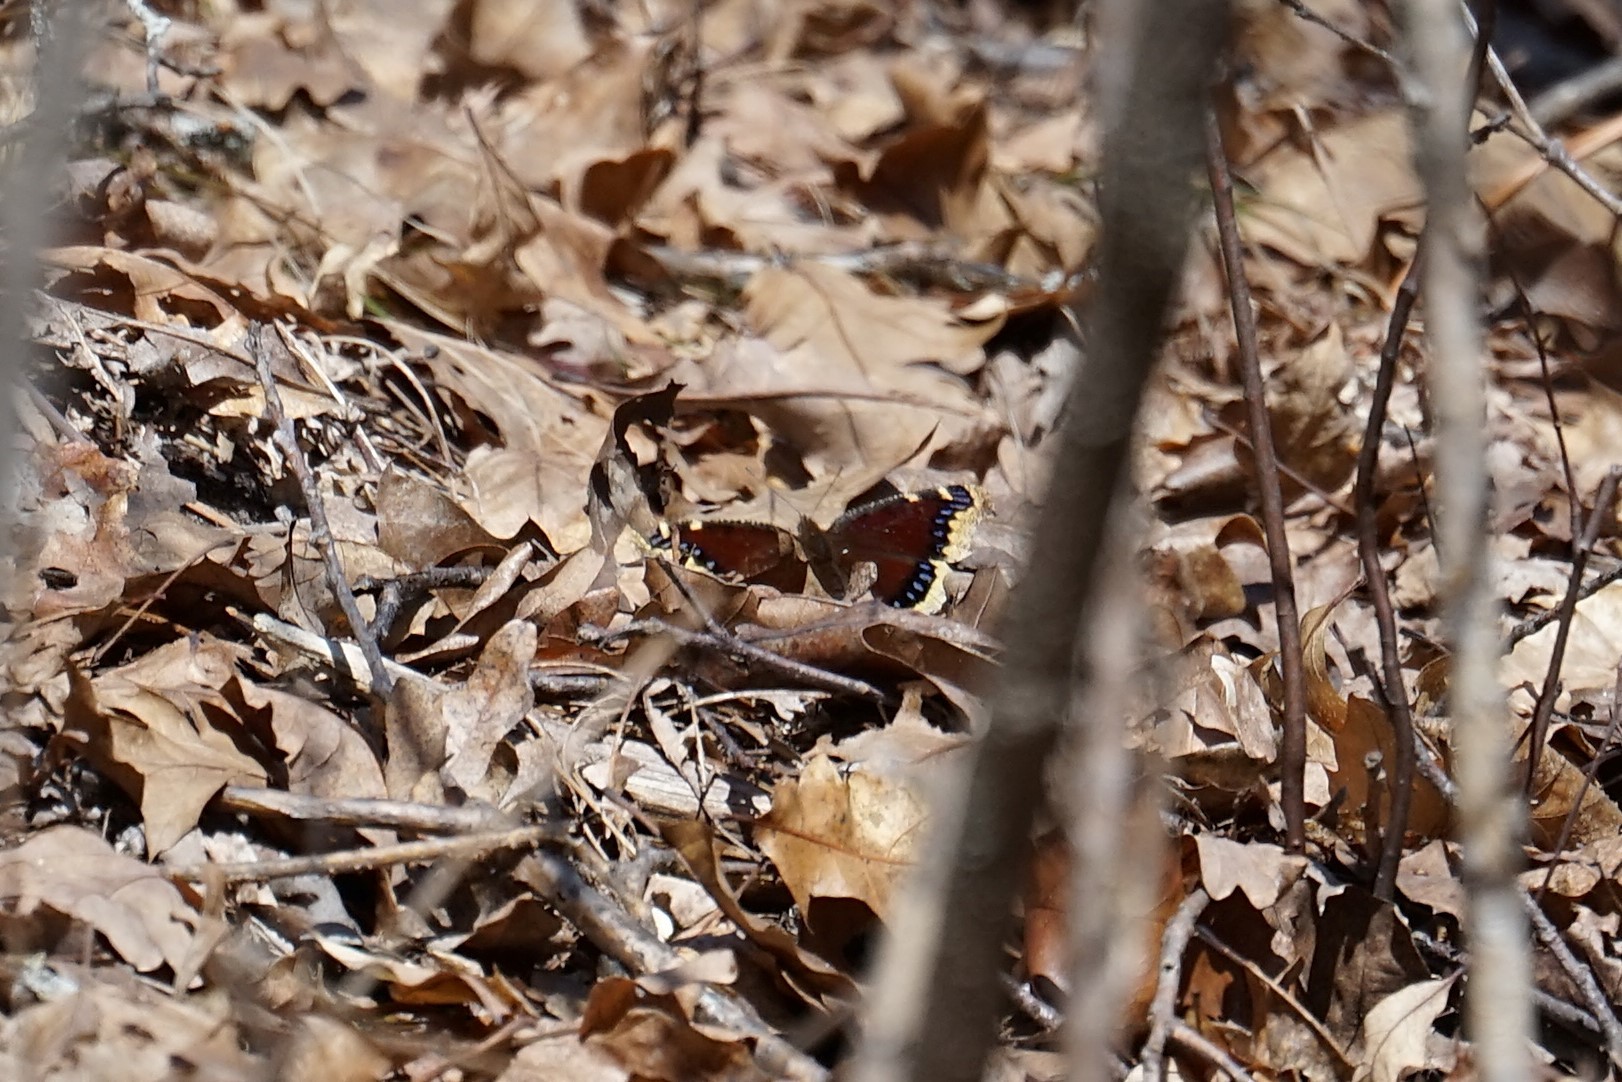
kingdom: Animalia
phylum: Arthropoda
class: Insecta
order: Lepidoptera
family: Nymphalidae
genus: Nymphalis
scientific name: Nymphalis antiopa
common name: Camberwell beauty
